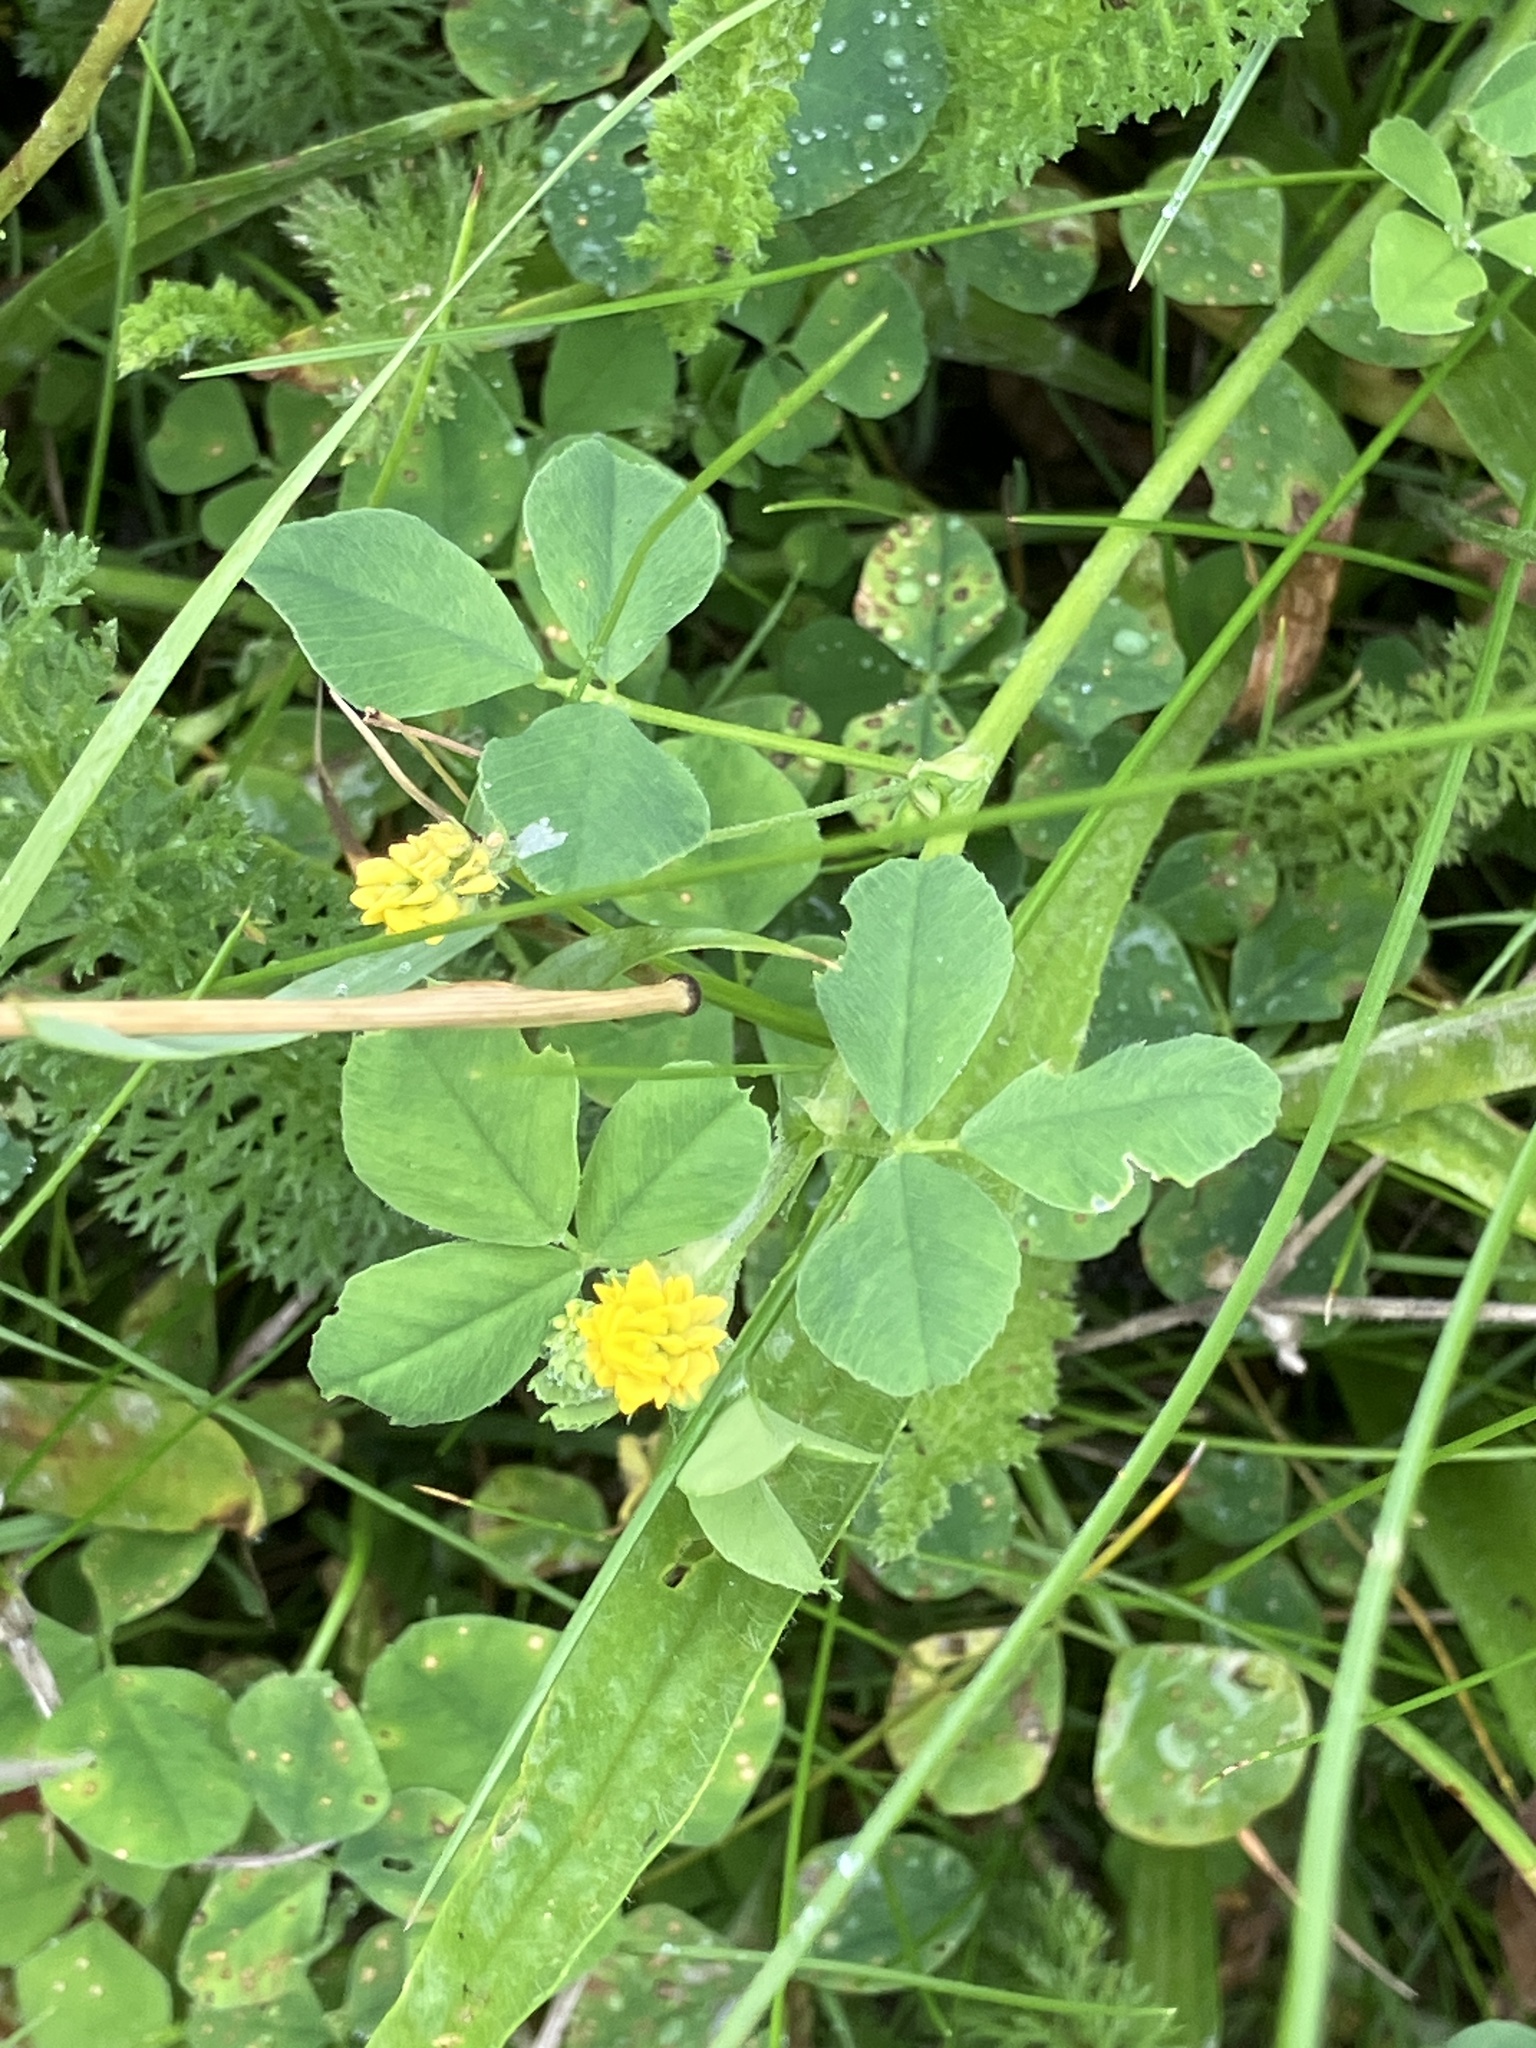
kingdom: Plantae
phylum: Tracheophyta
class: Magnoliopsida
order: Fabales
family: Fabaceae
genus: Medicago
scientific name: Medicago lupulina
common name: Black medick
